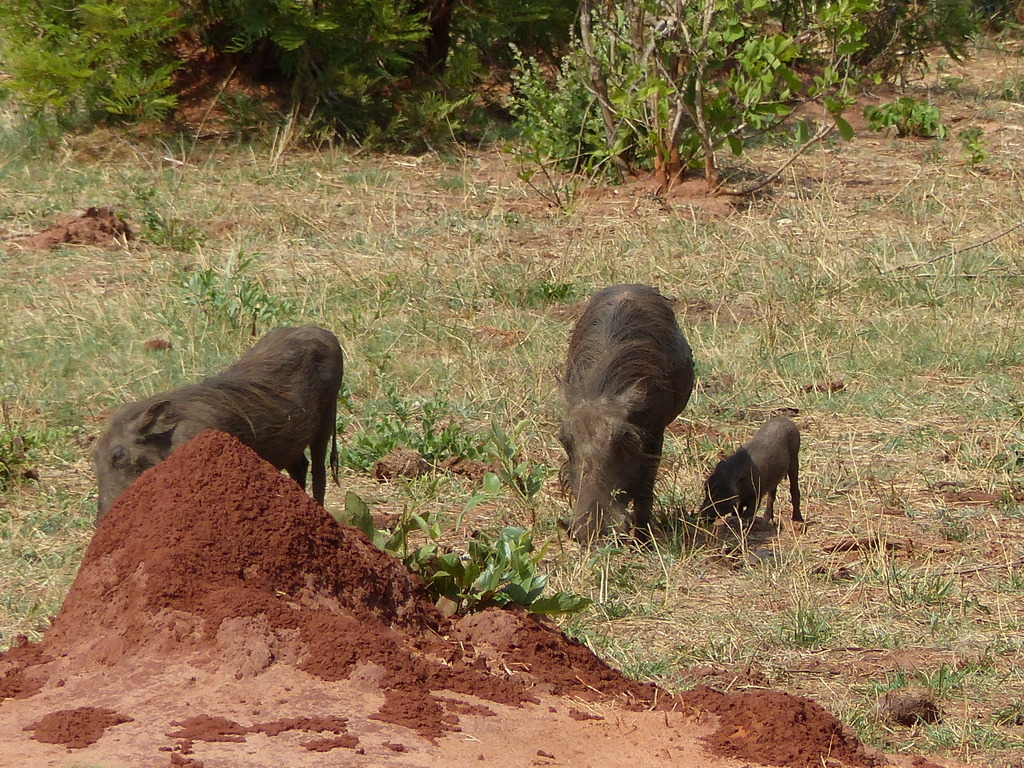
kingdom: Animalia
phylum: Chordata
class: Mammalia
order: Artiodactyla
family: Suidae
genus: Phacochoerus
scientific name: Phacochoerus africanus
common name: Common warthog
